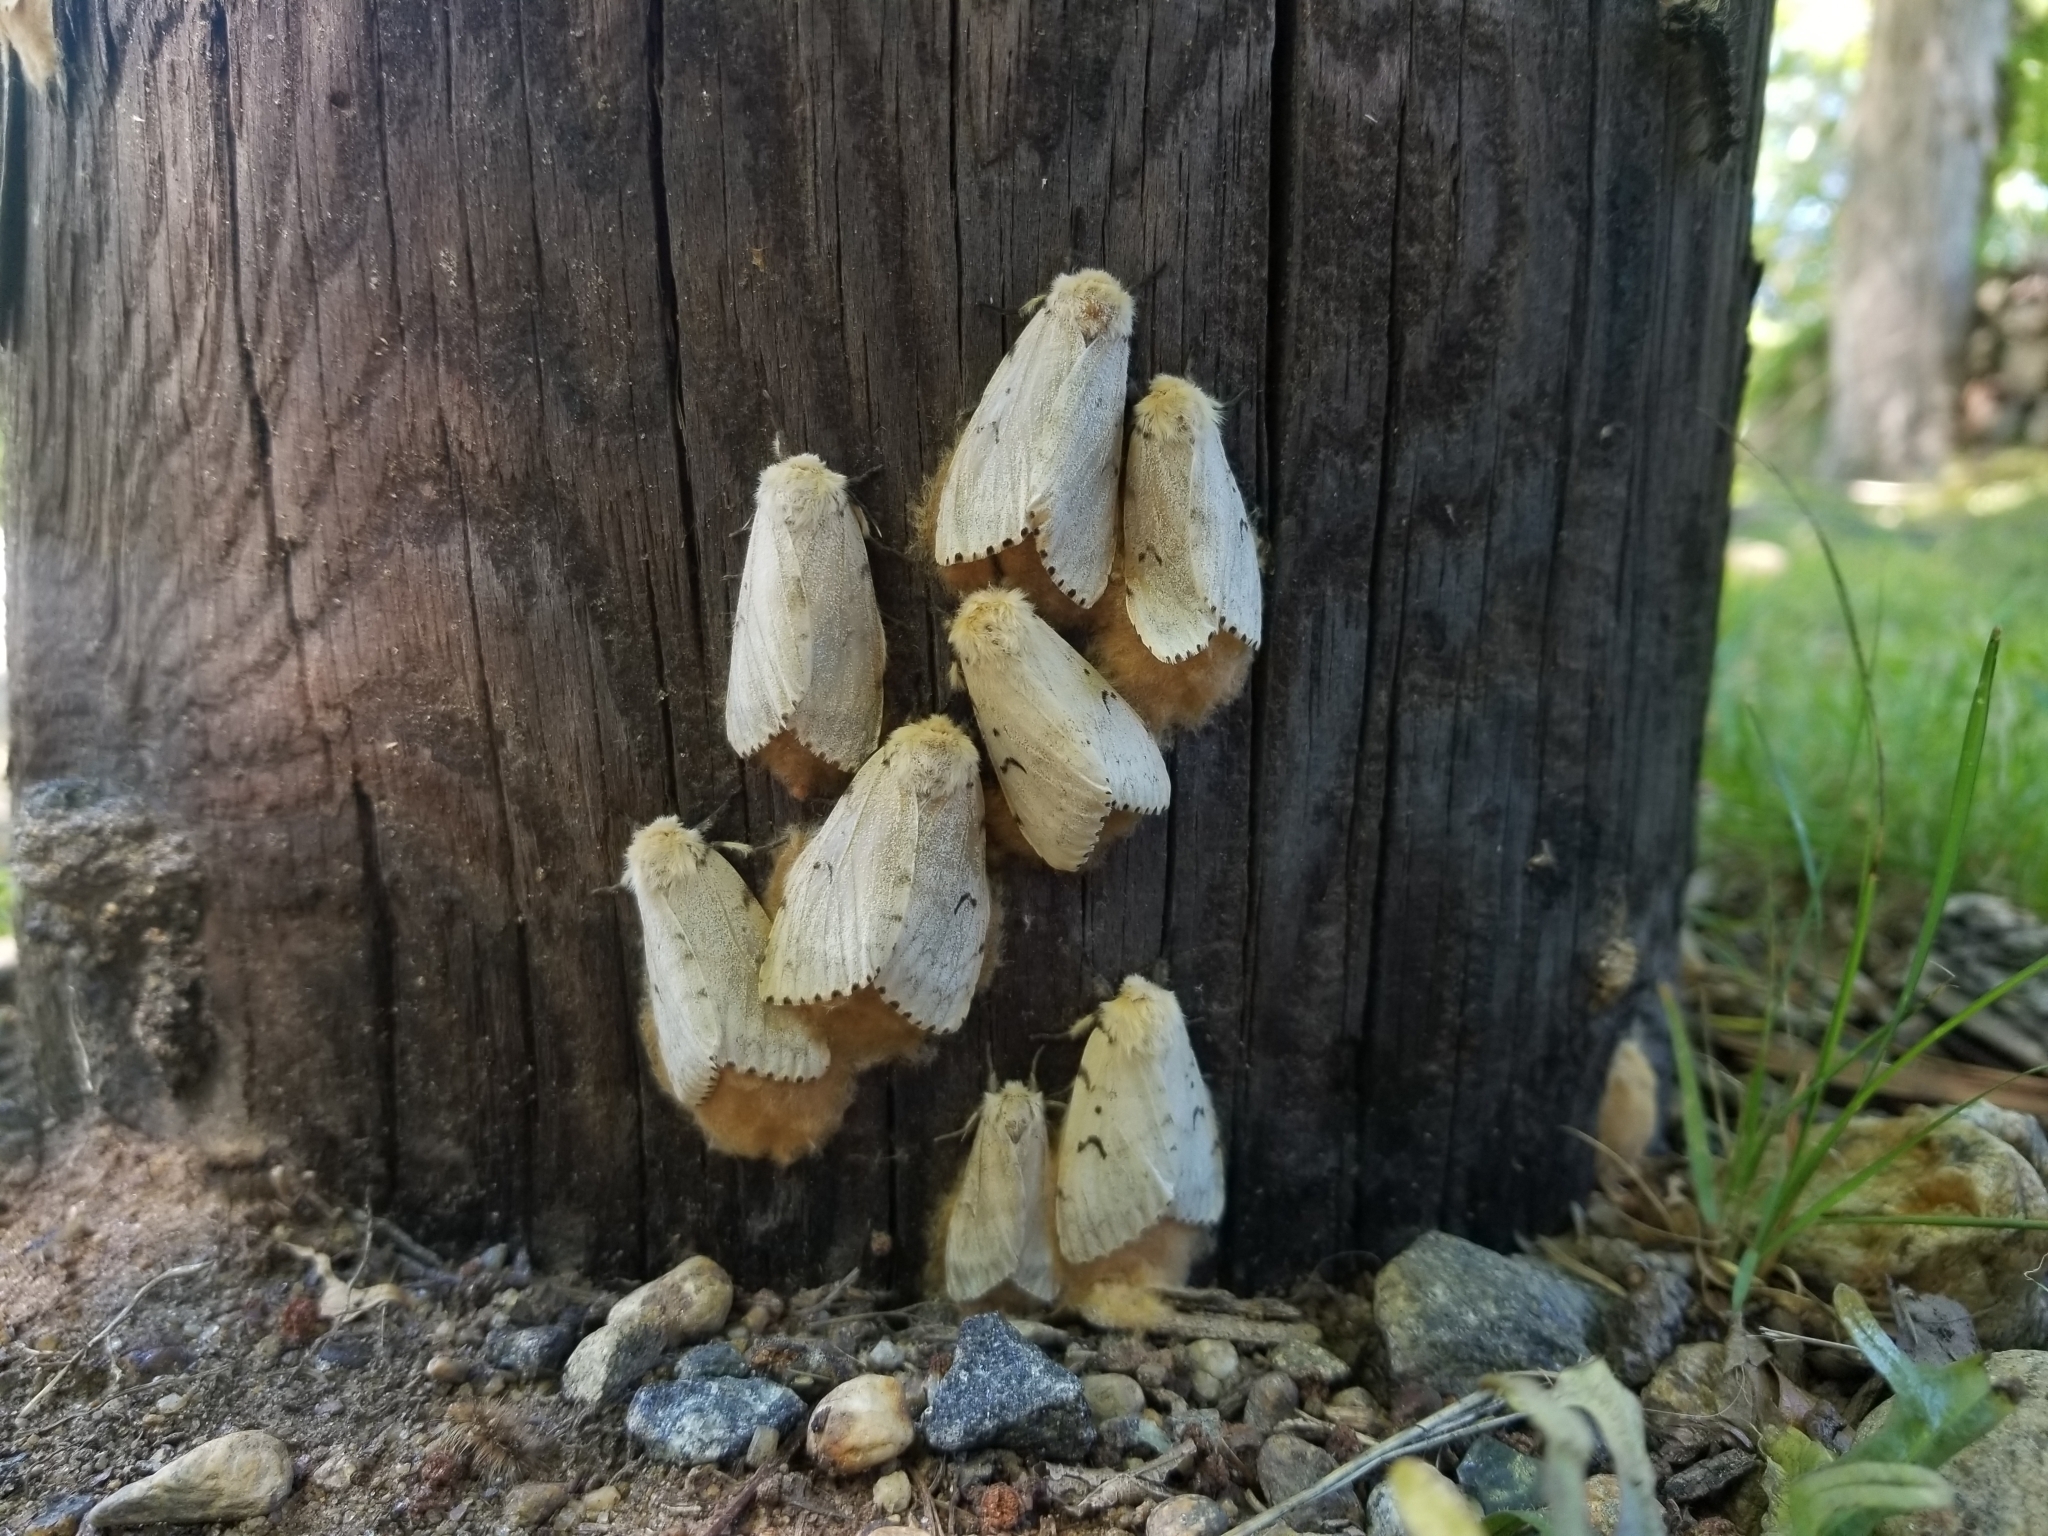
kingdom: Animalia
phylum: Arthropoda
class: Insecta
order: Lepidoptera
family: Erebidae
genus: Lymantria
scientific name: Lymantria dispar
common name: Gypsy moth
